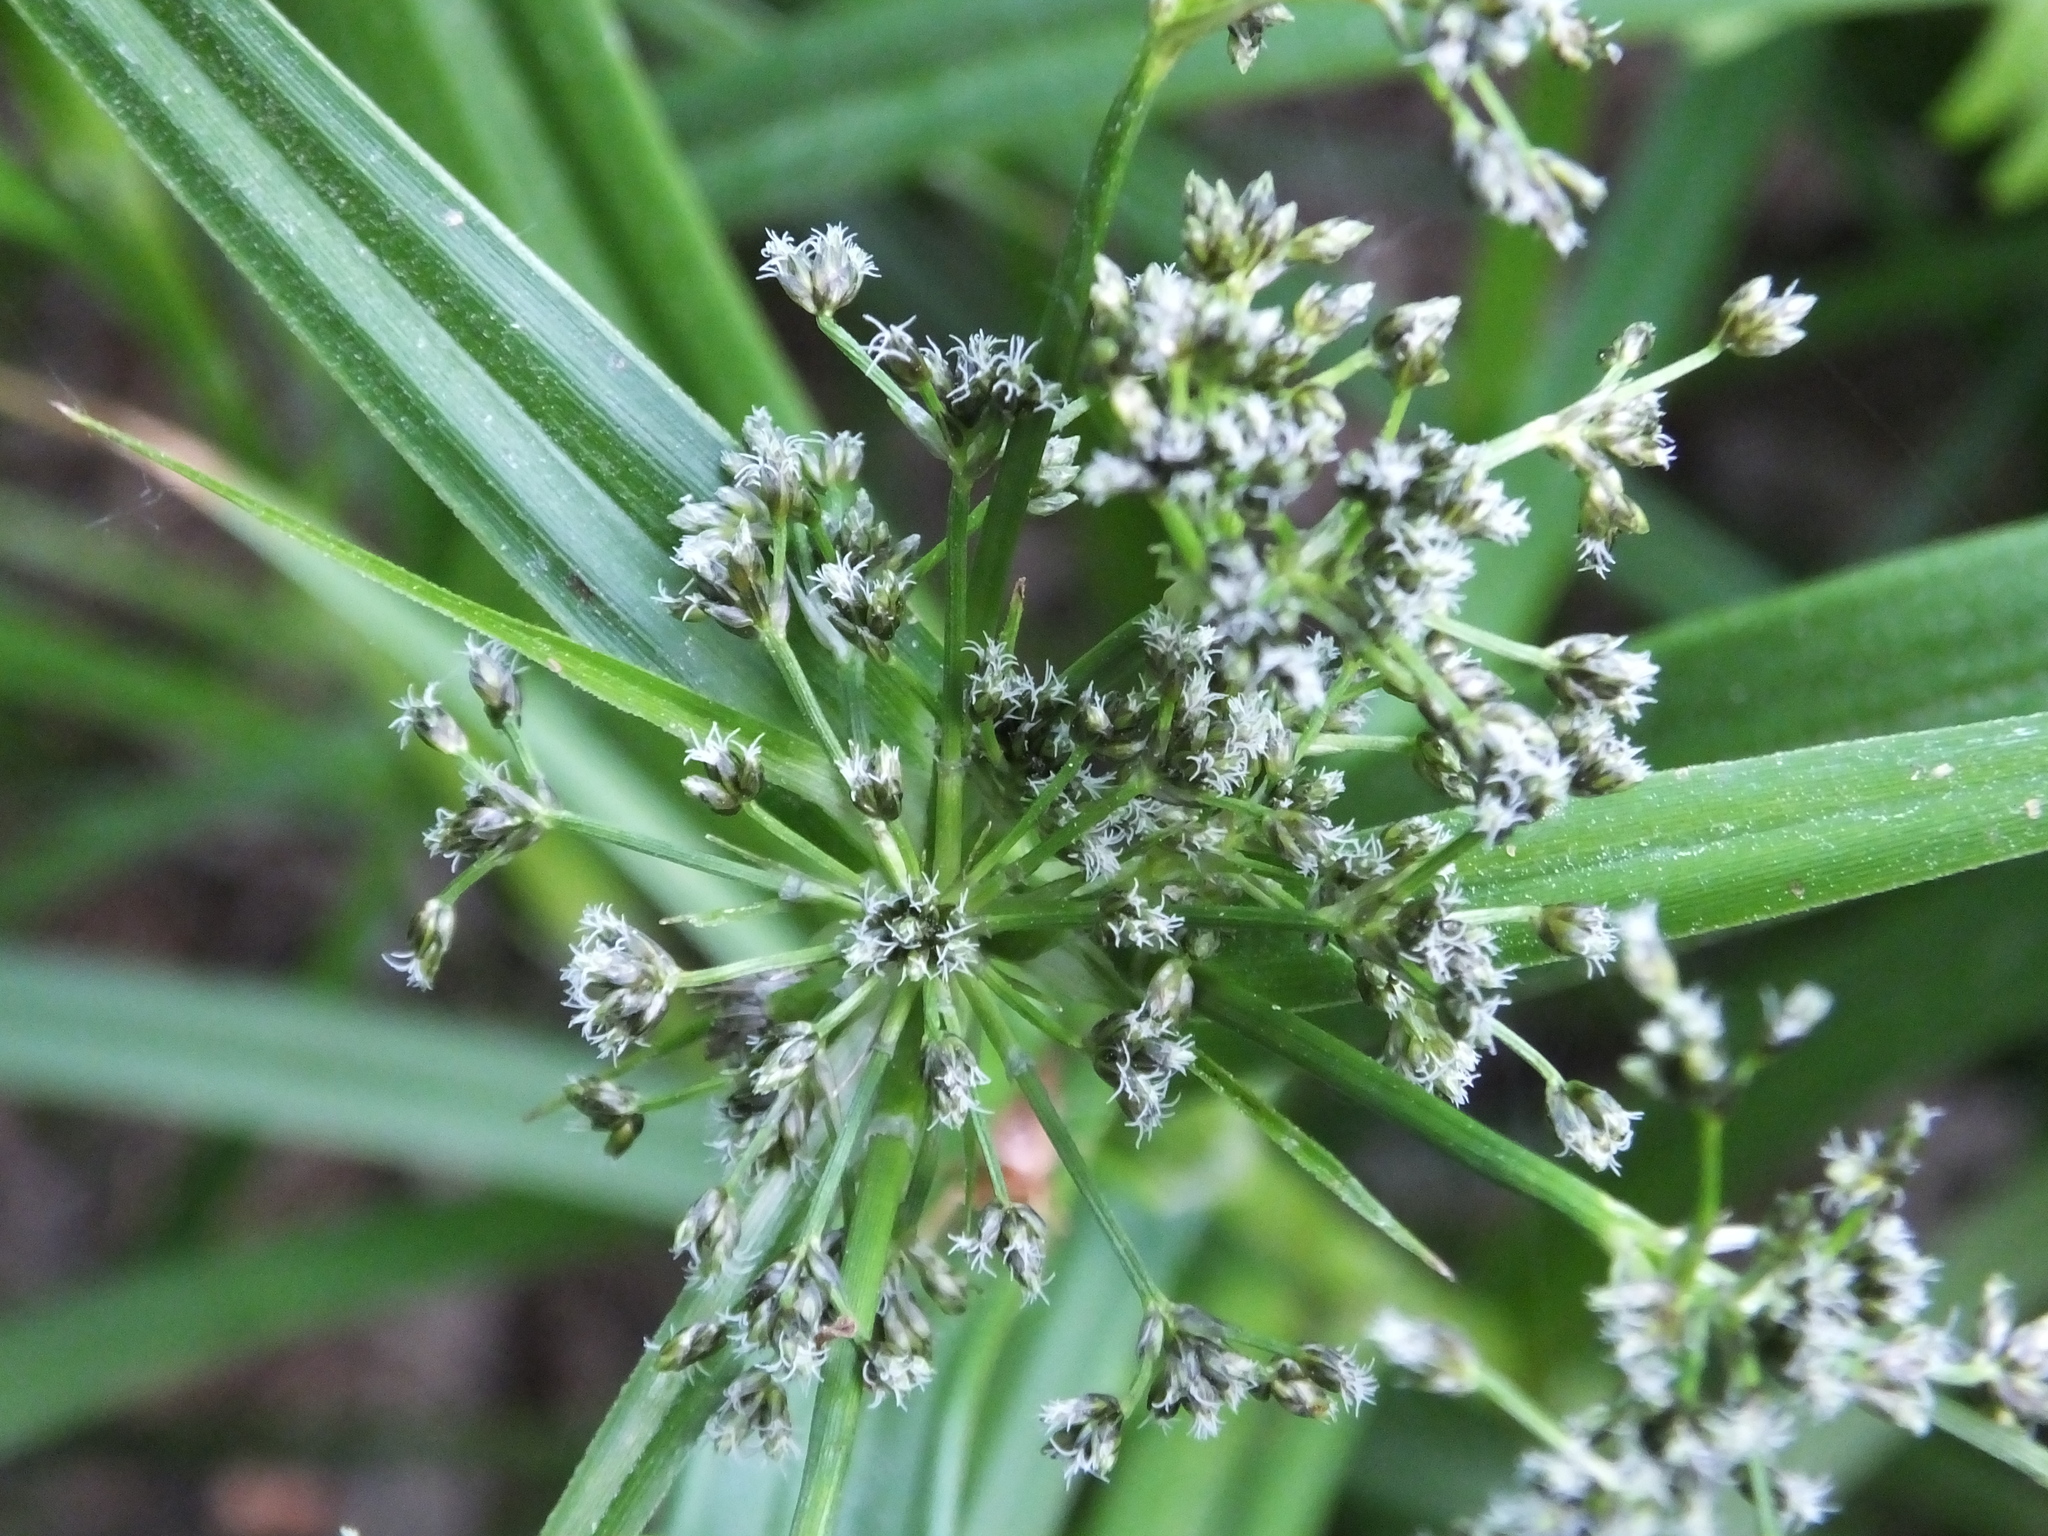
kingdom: Plantae
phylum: Tracheophyta
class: Liliopsida
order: Poales
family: Cyperaceae
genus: Scirpus
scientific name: Scirpus sylvaticus
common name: Wood club-rush
